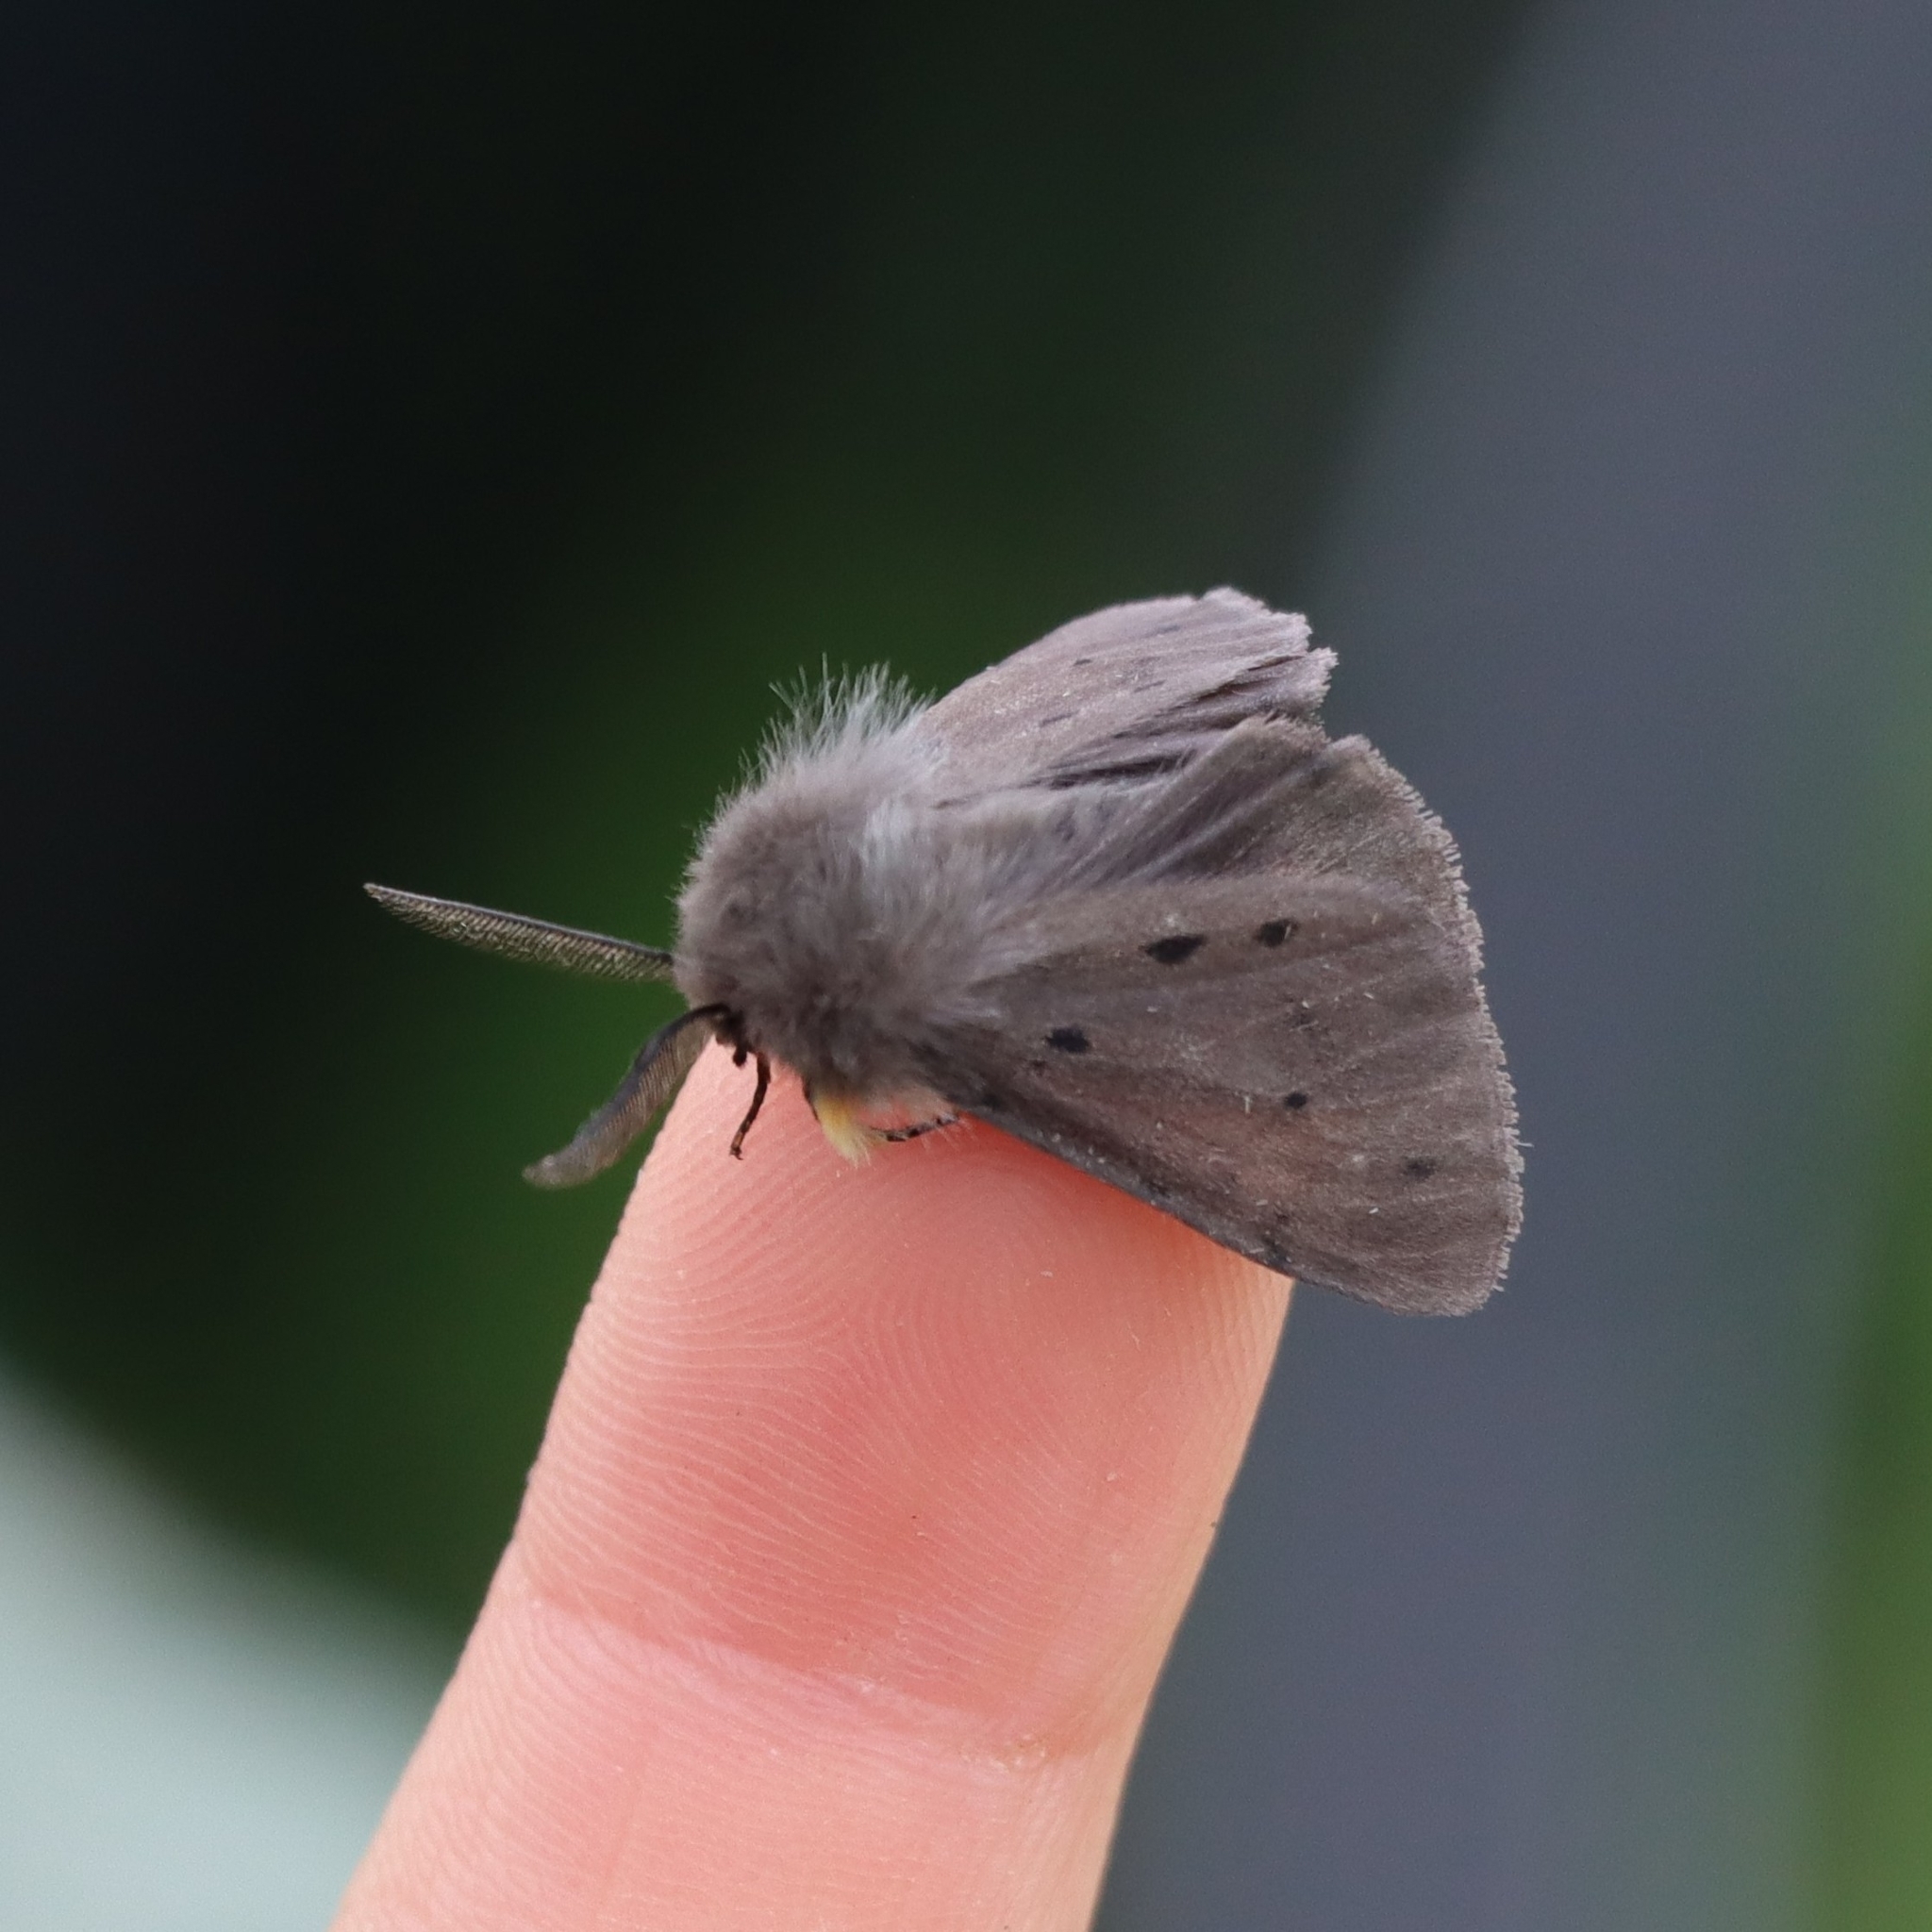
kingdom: Animalia
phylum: Arthropoda
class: Insecta
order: Lepidoptera
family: Erebidae
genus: Diaphora
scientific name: Diaphora mendica
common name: Muslin moth
